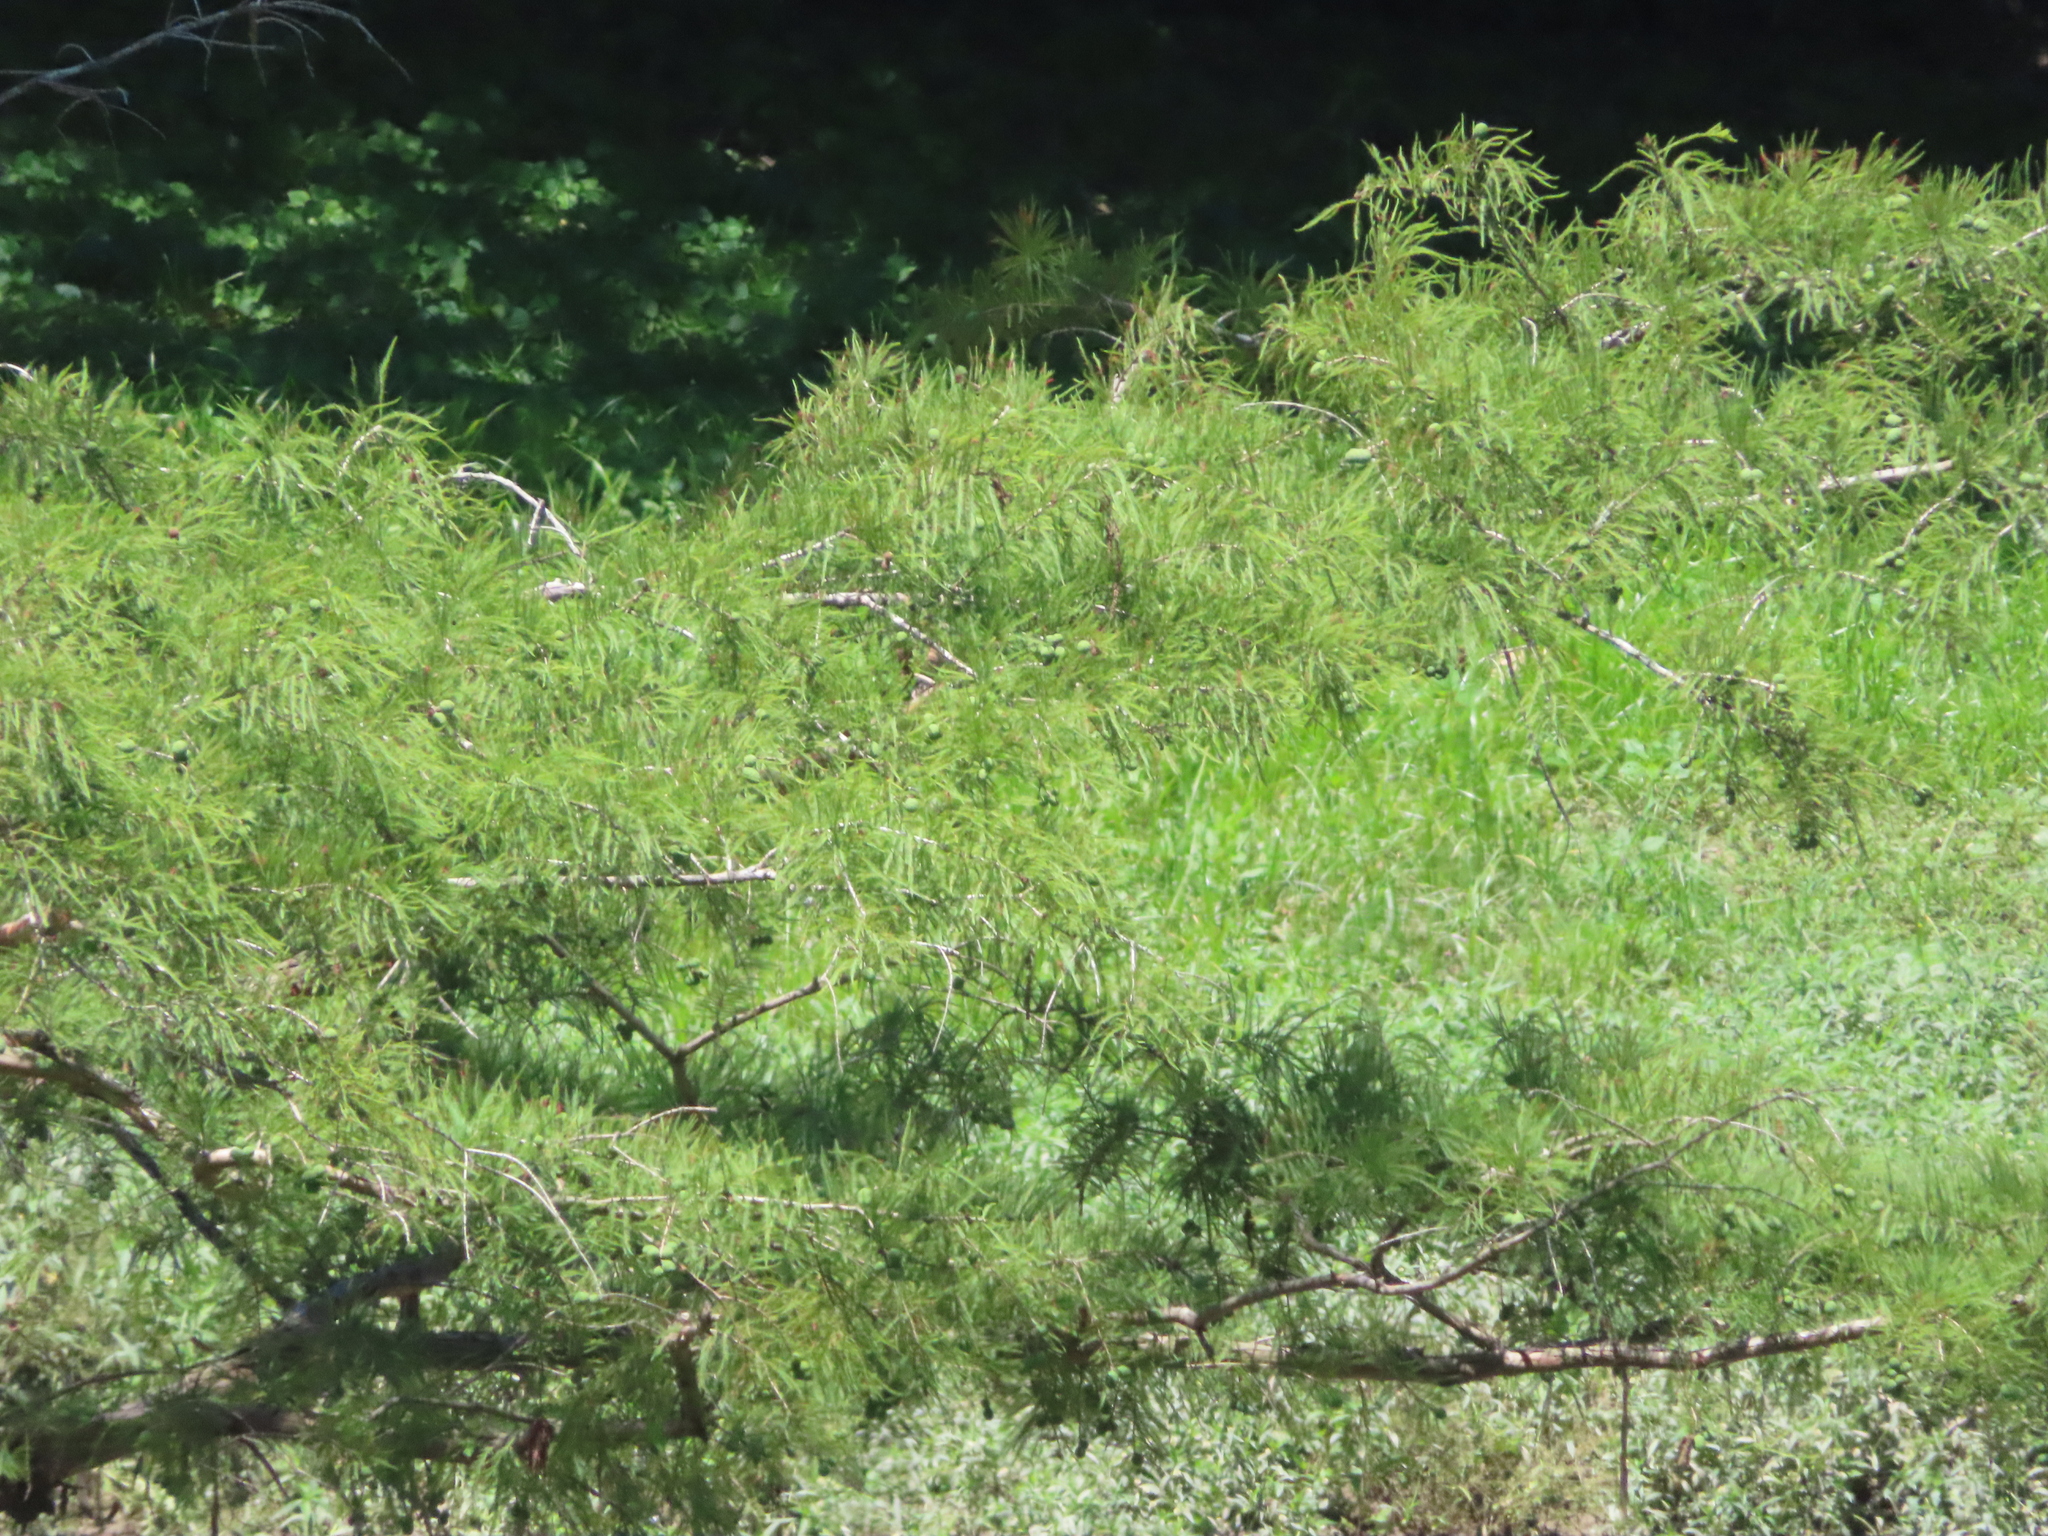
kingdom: Plantae
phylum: Tracheophyta
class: Pinopsida
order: Pinales
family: Cupressaceae
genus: Taxodium
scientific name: Taxodium distichum
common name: Bald cypress
